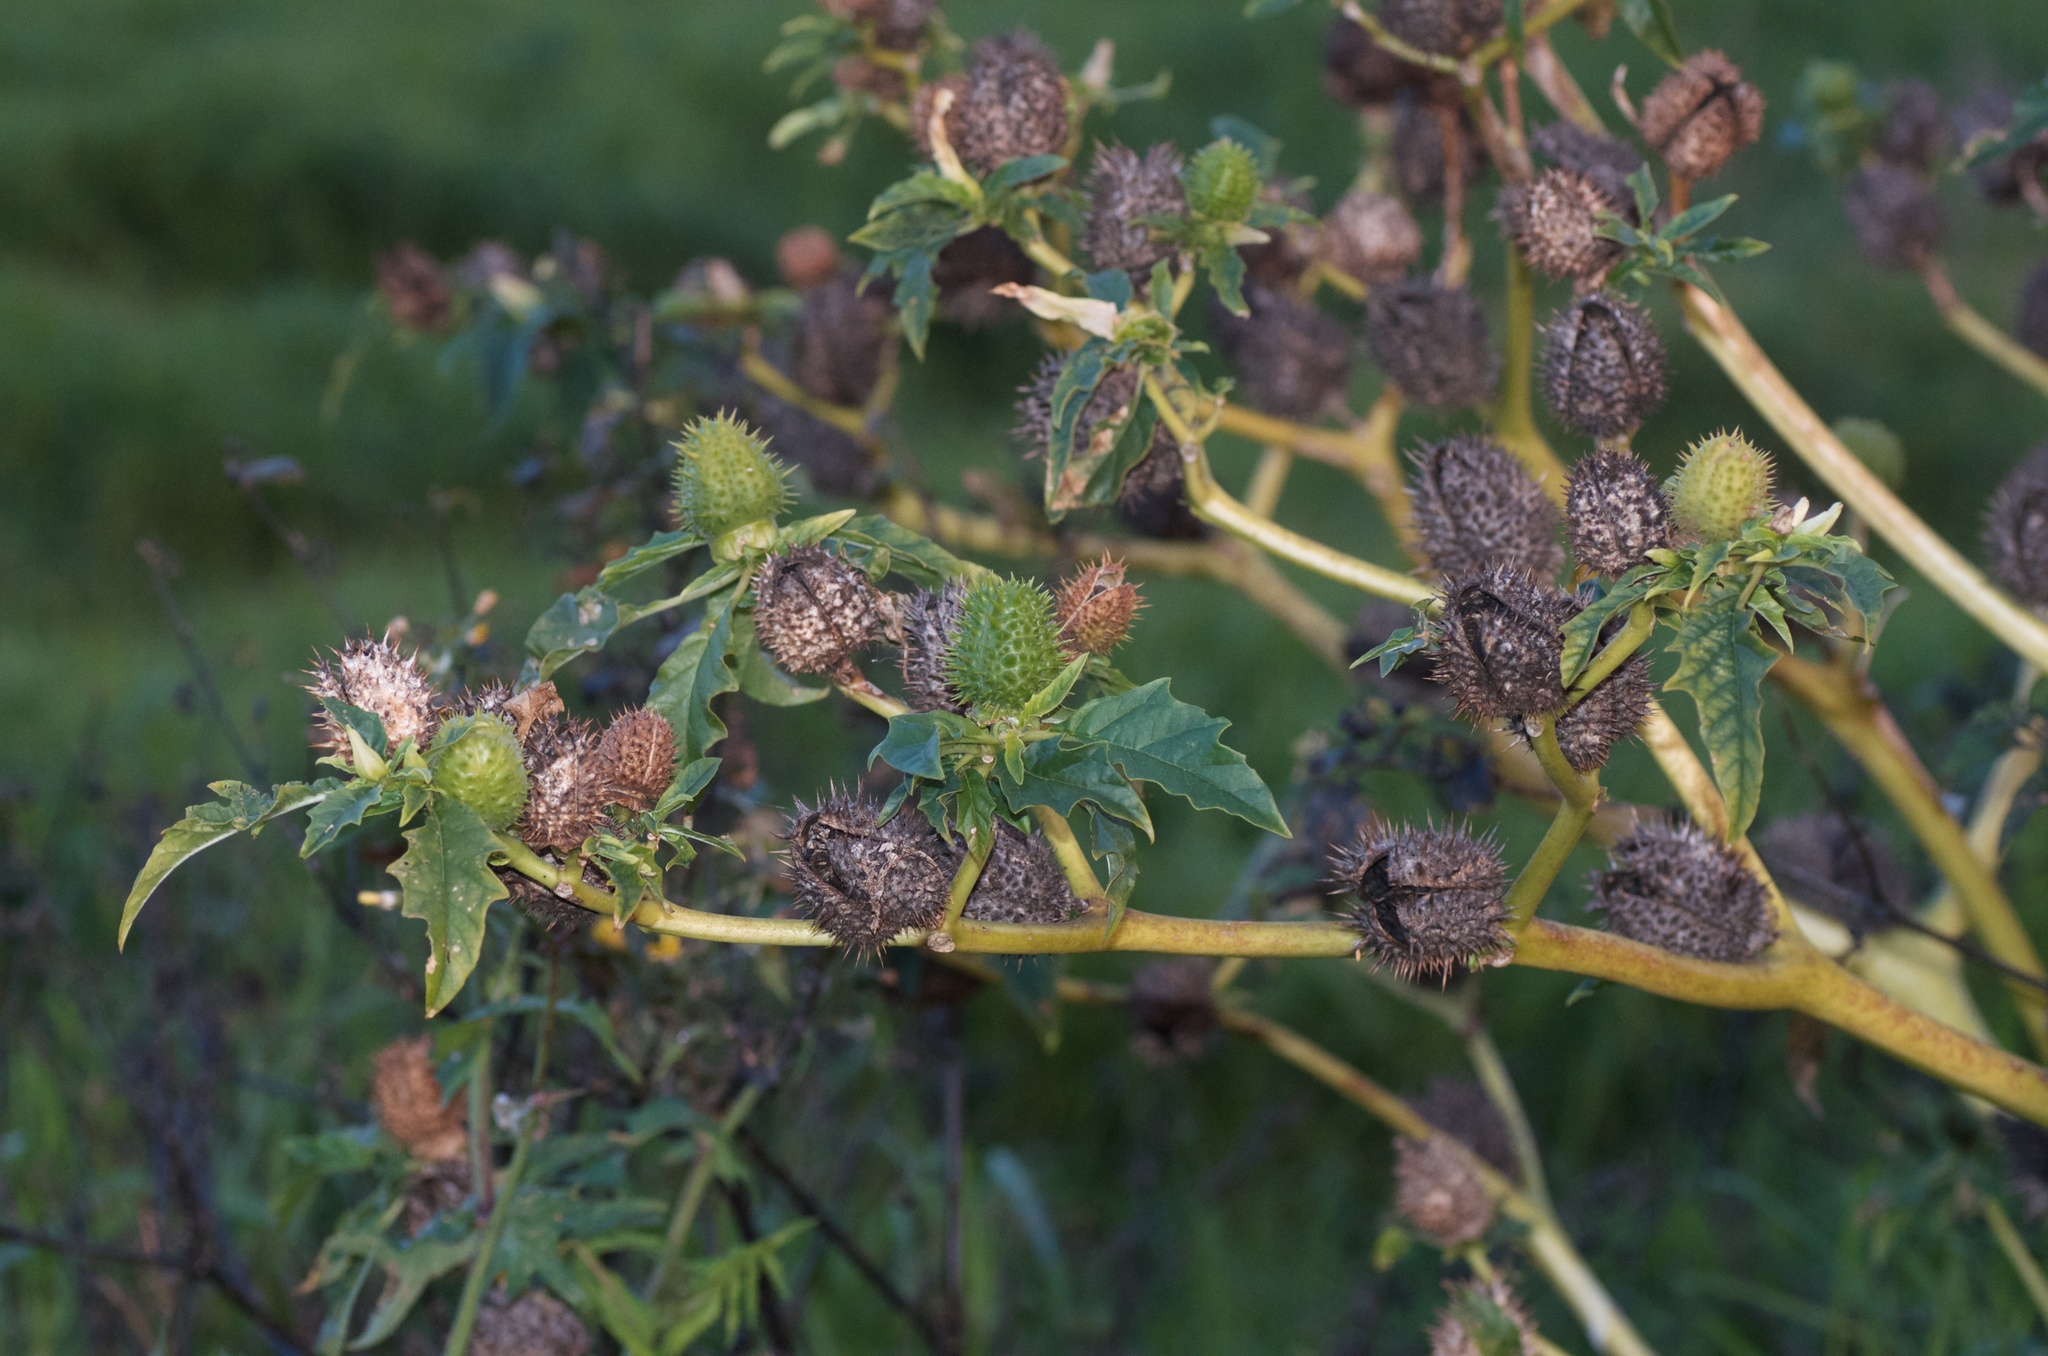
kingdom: Plantae
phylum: Tracheophyta
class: Magnoliopsida
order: Solanales
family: Solanaceae
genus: Datura
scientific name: Datura stramonium
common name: Thorn-apple
